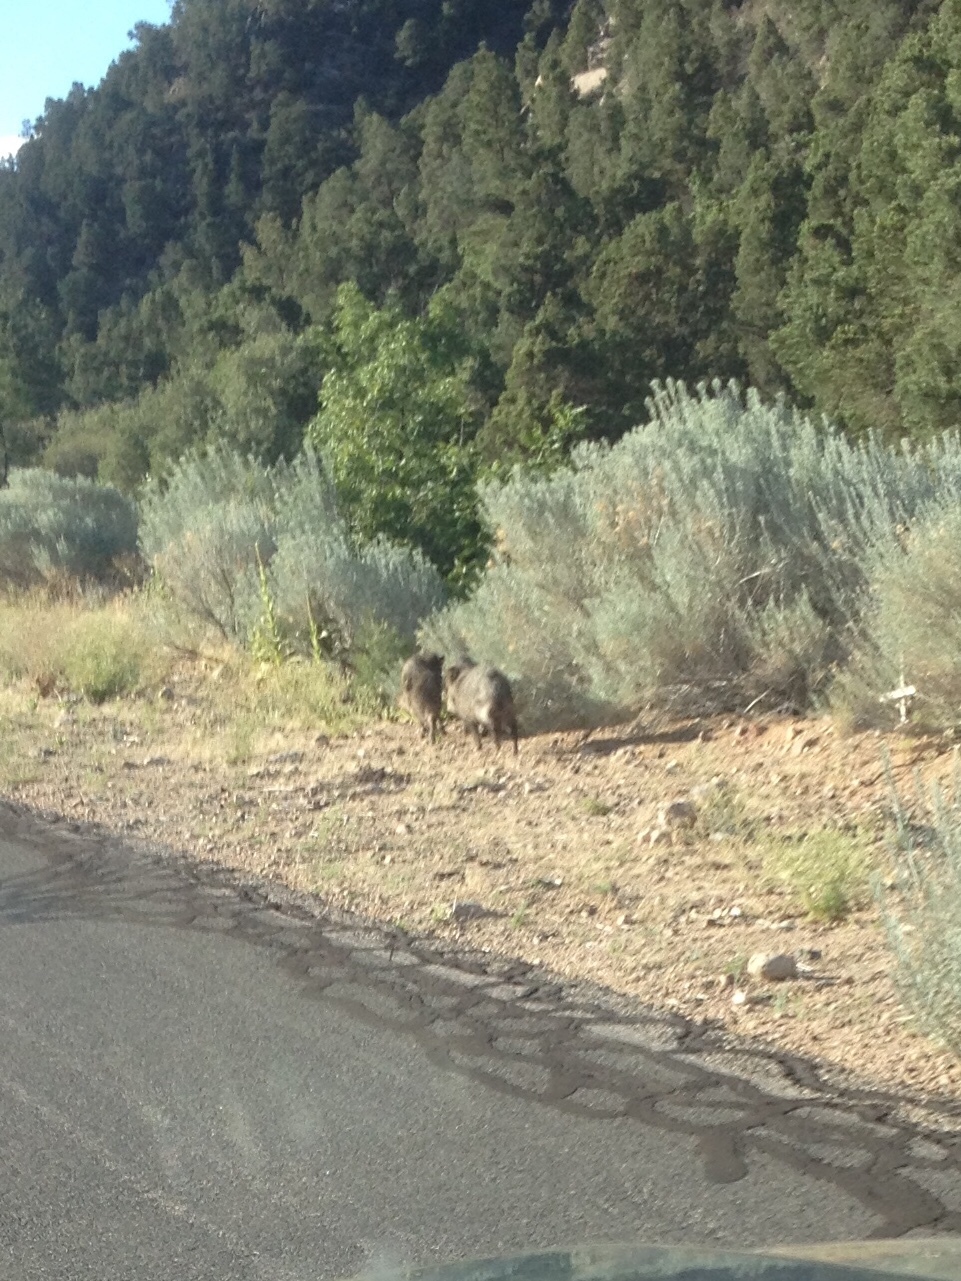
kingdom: Animalia
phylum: Chordata
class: Mammalia
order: Artiodactyla
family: Tayassuidae
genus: Pecari
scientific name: Pecari tajacu
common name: Collared peccary
